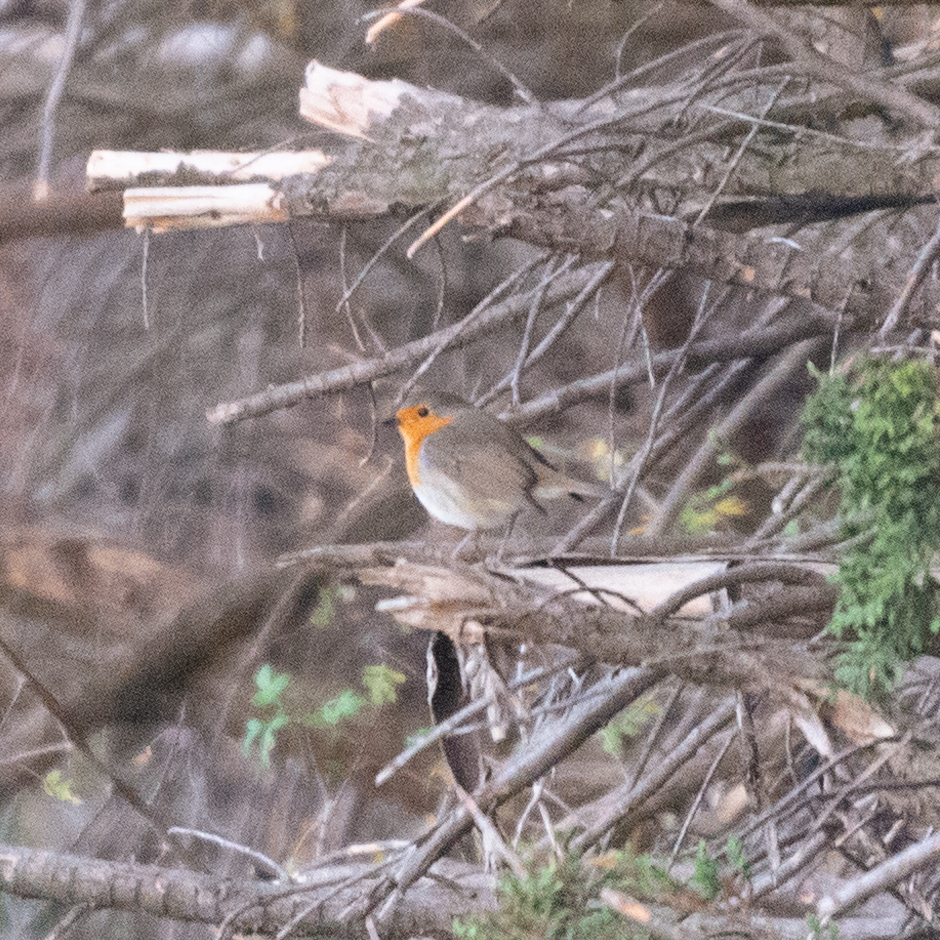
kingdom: Animalia
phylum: Chordata
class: Aves
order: Passeriformes
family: Muscicapidae
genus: Erithacus
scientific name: Erithacus rubecula
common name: European robin
